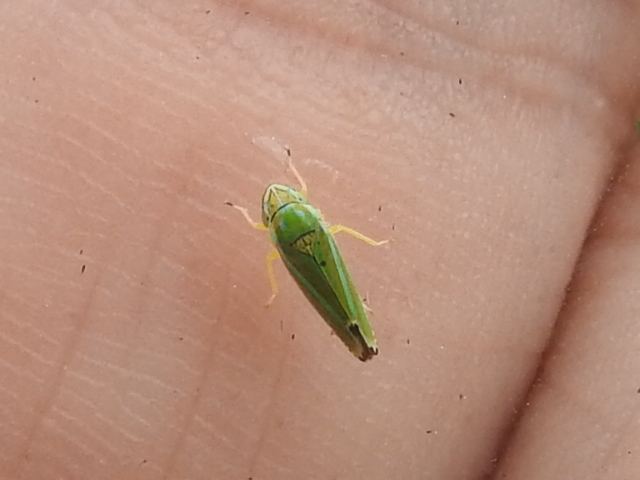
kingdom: Animalia
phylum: Arthropoda
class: Insecta
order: Hemiptera
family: Cicadellidae
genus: Graphocephala
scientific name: Graphocephala versuta
